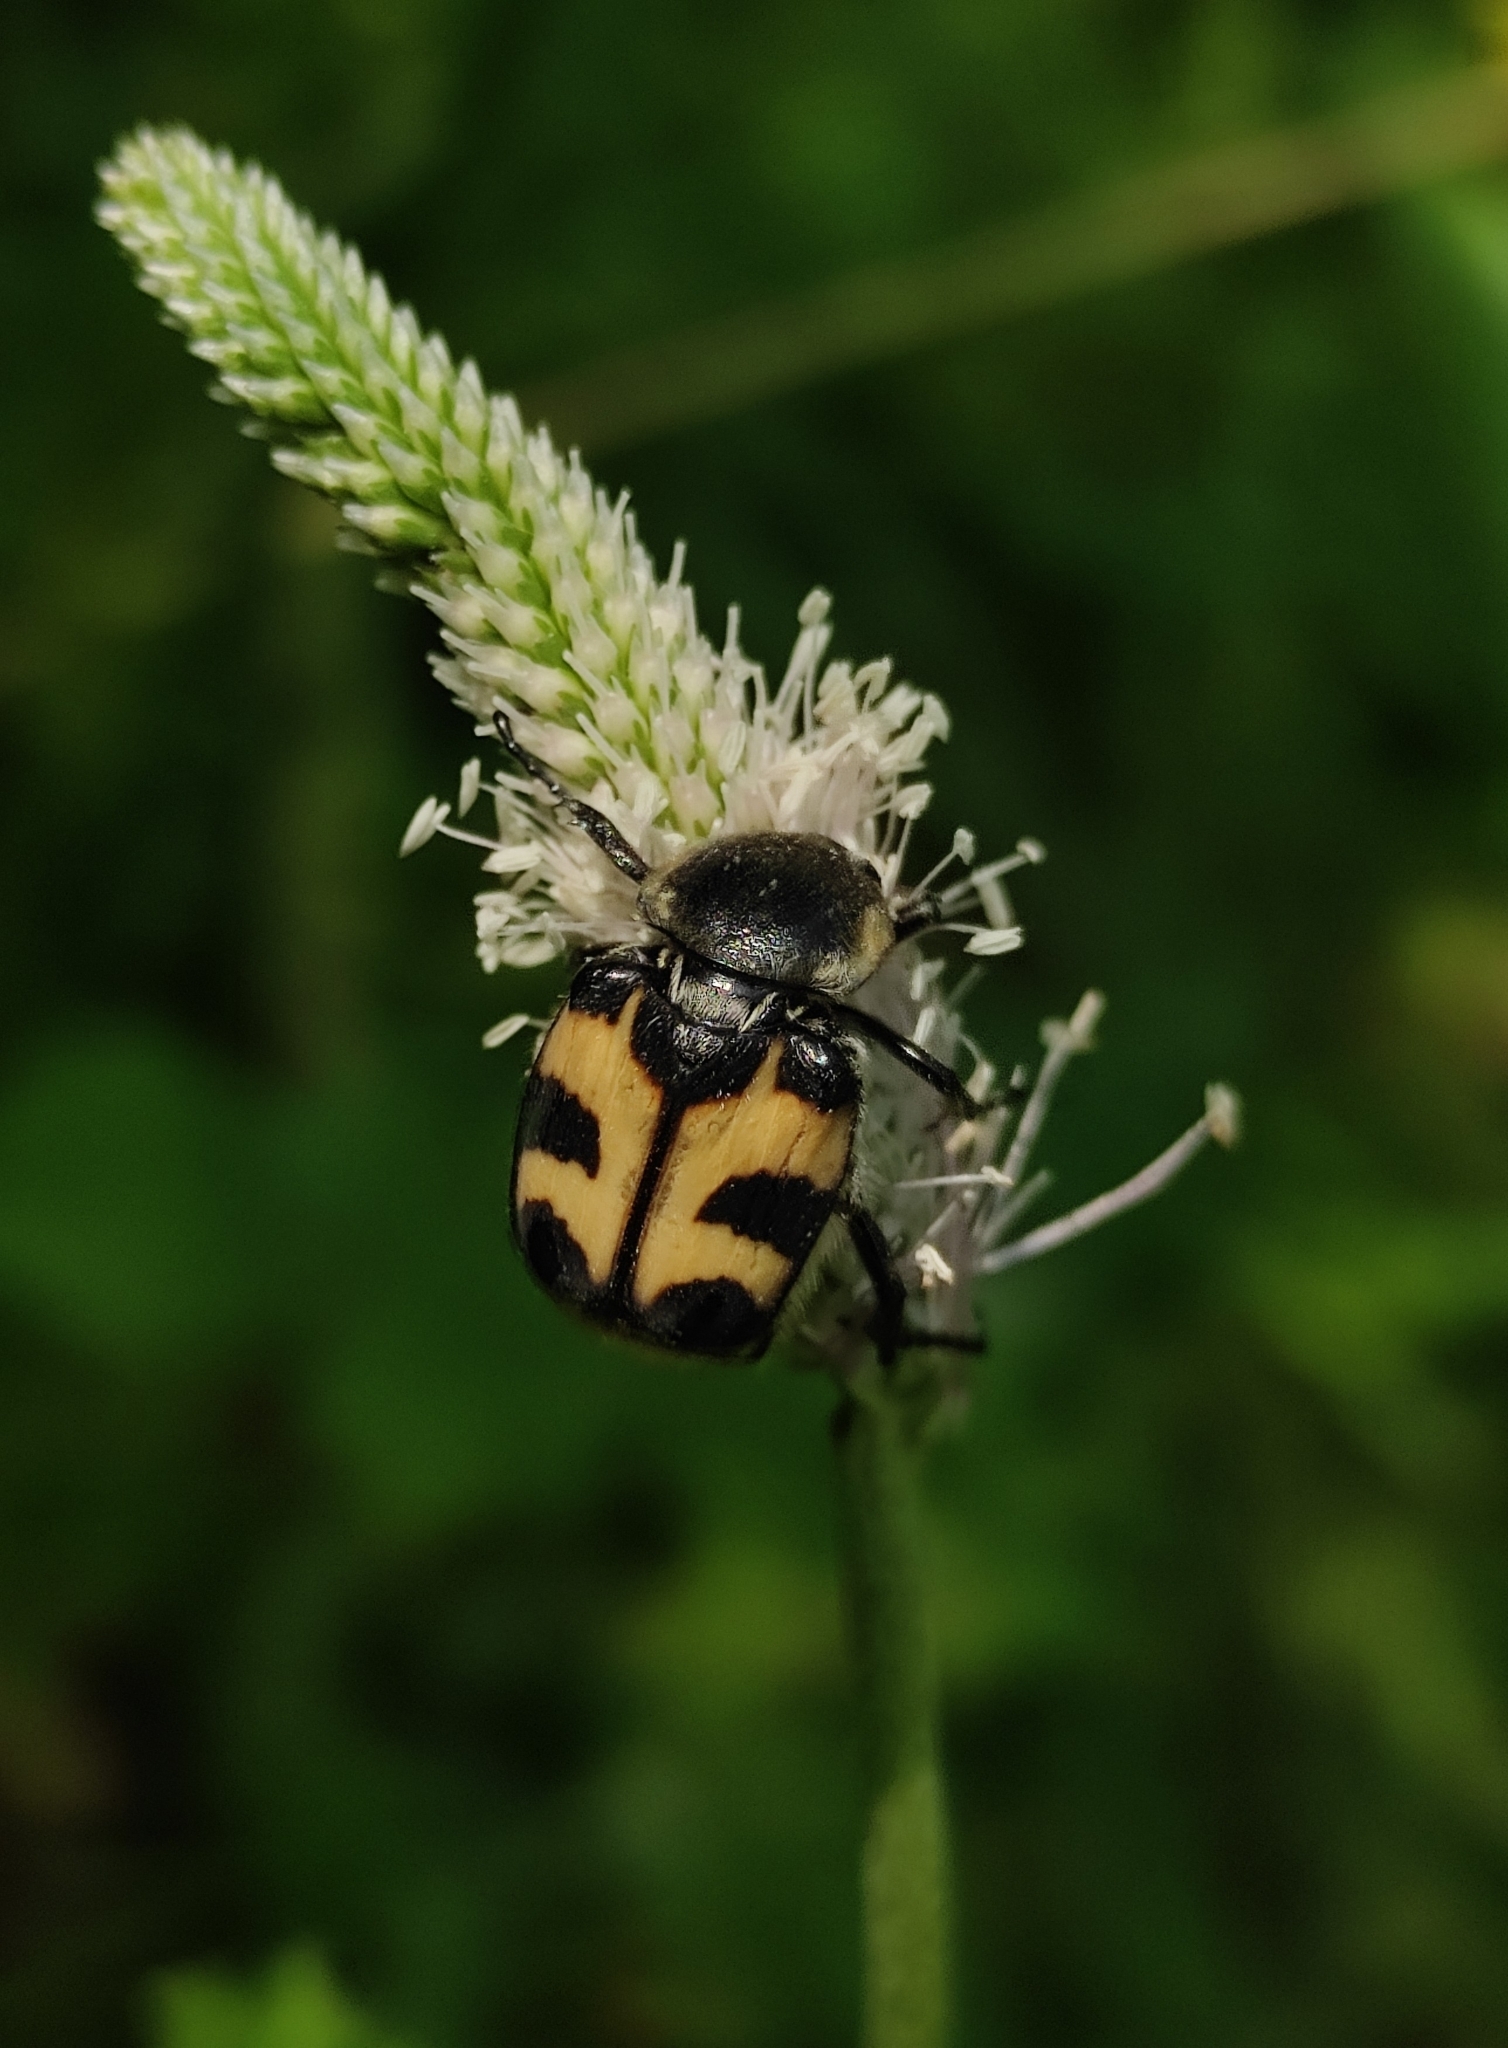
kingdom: Animalia
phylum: Arthropoda
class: Insecta
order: Coleoptera
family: Scarabaeidae
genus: Trichius
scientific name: Trichius fasciatus
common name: Bee beetle
